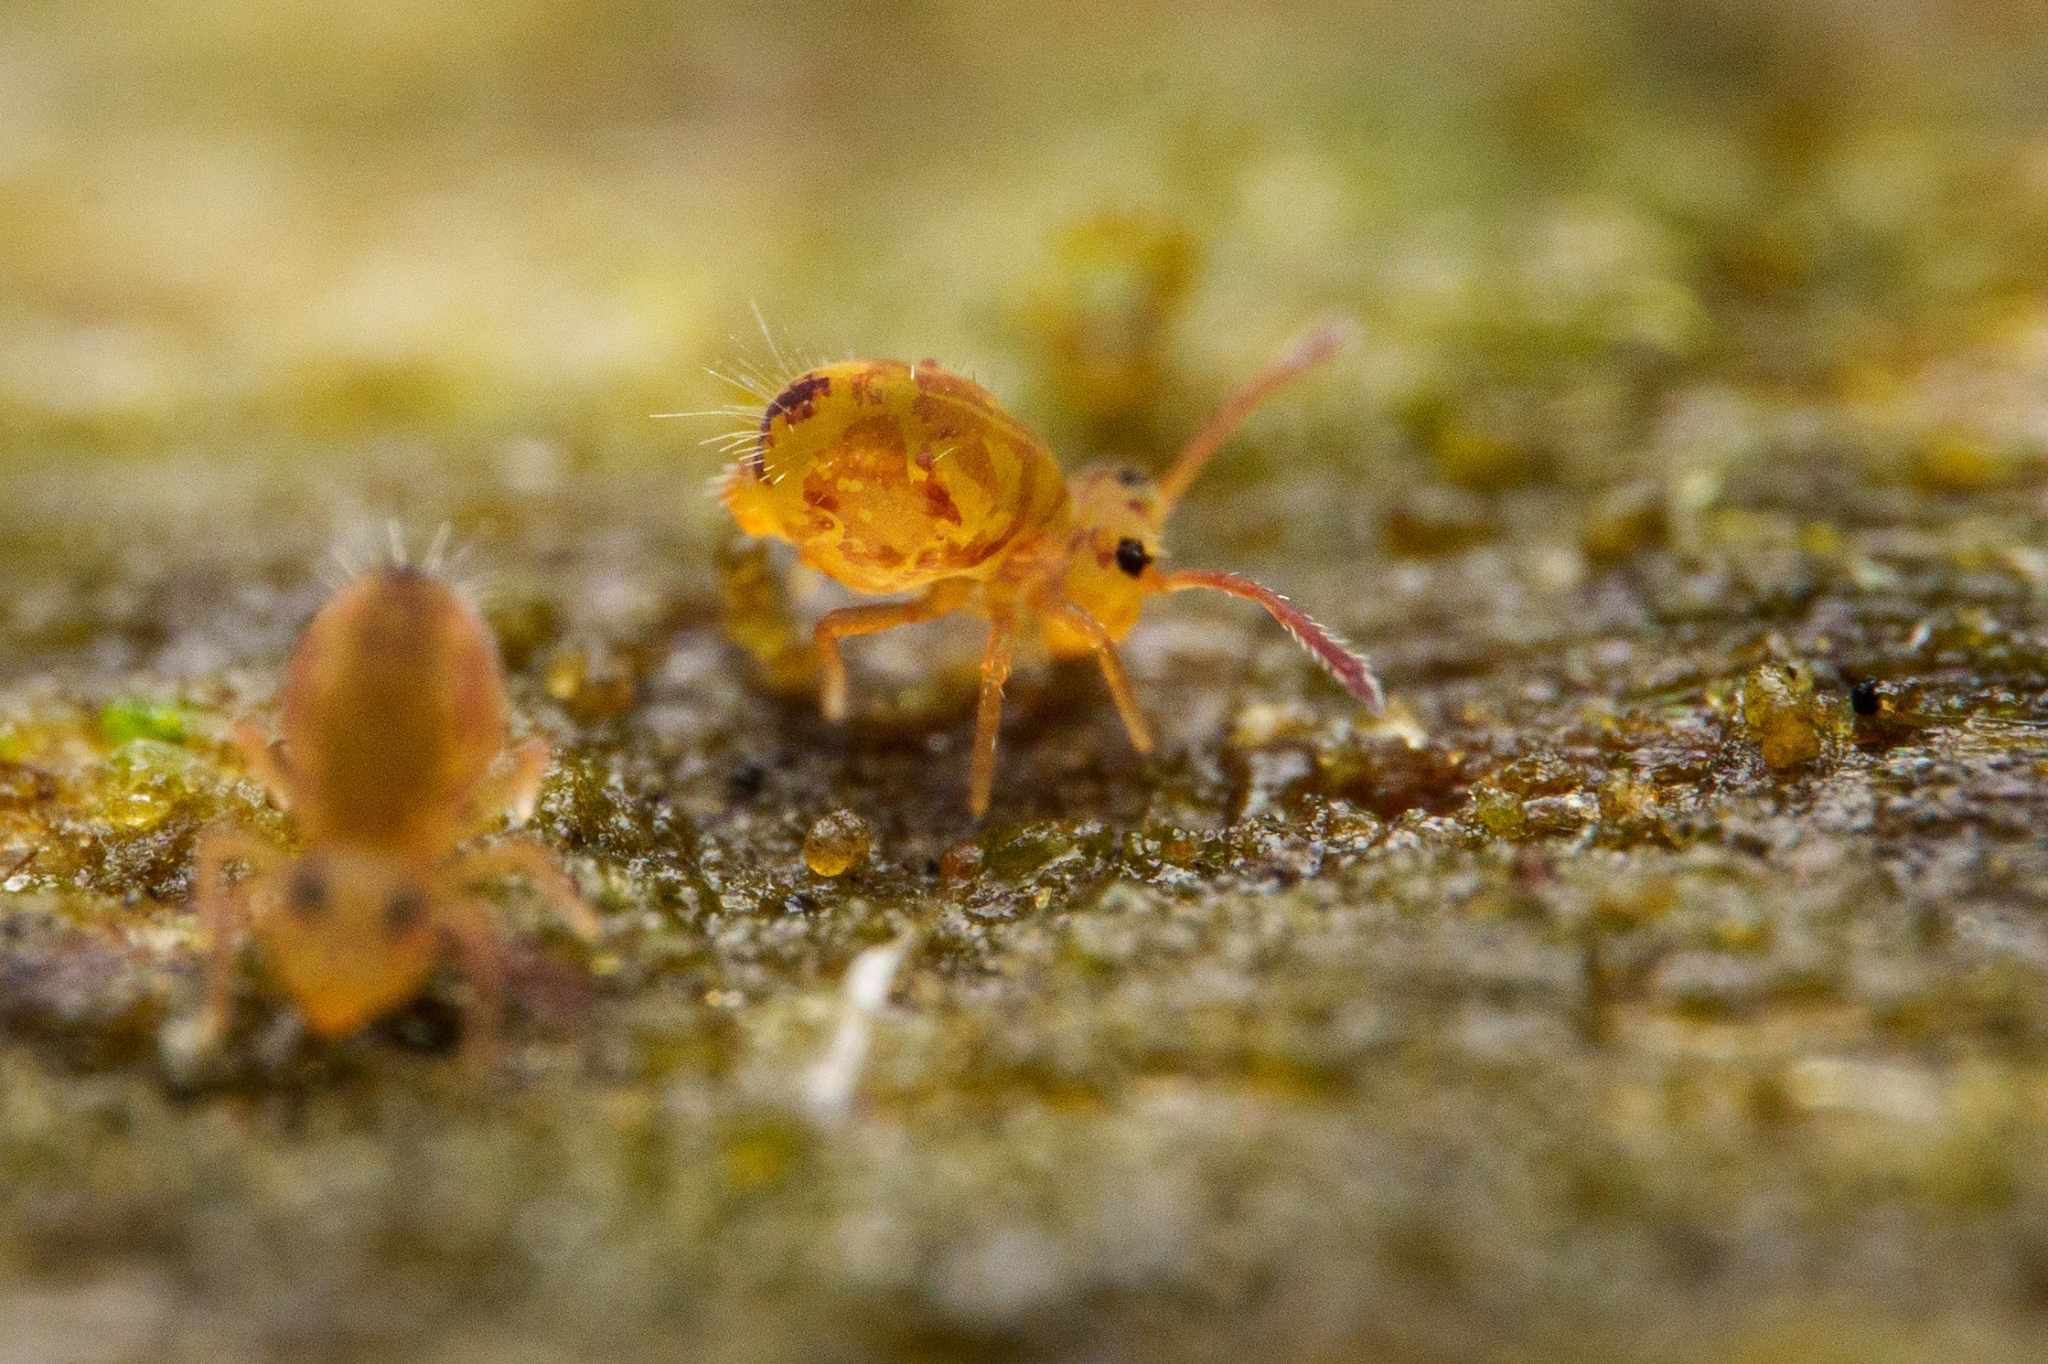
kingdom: Animalia
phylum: Arthropoda
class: Collembola
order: Symphypleona
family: Dicyrtomidae
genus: Dicyrtomina
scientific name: Dicyrtomina minuta
